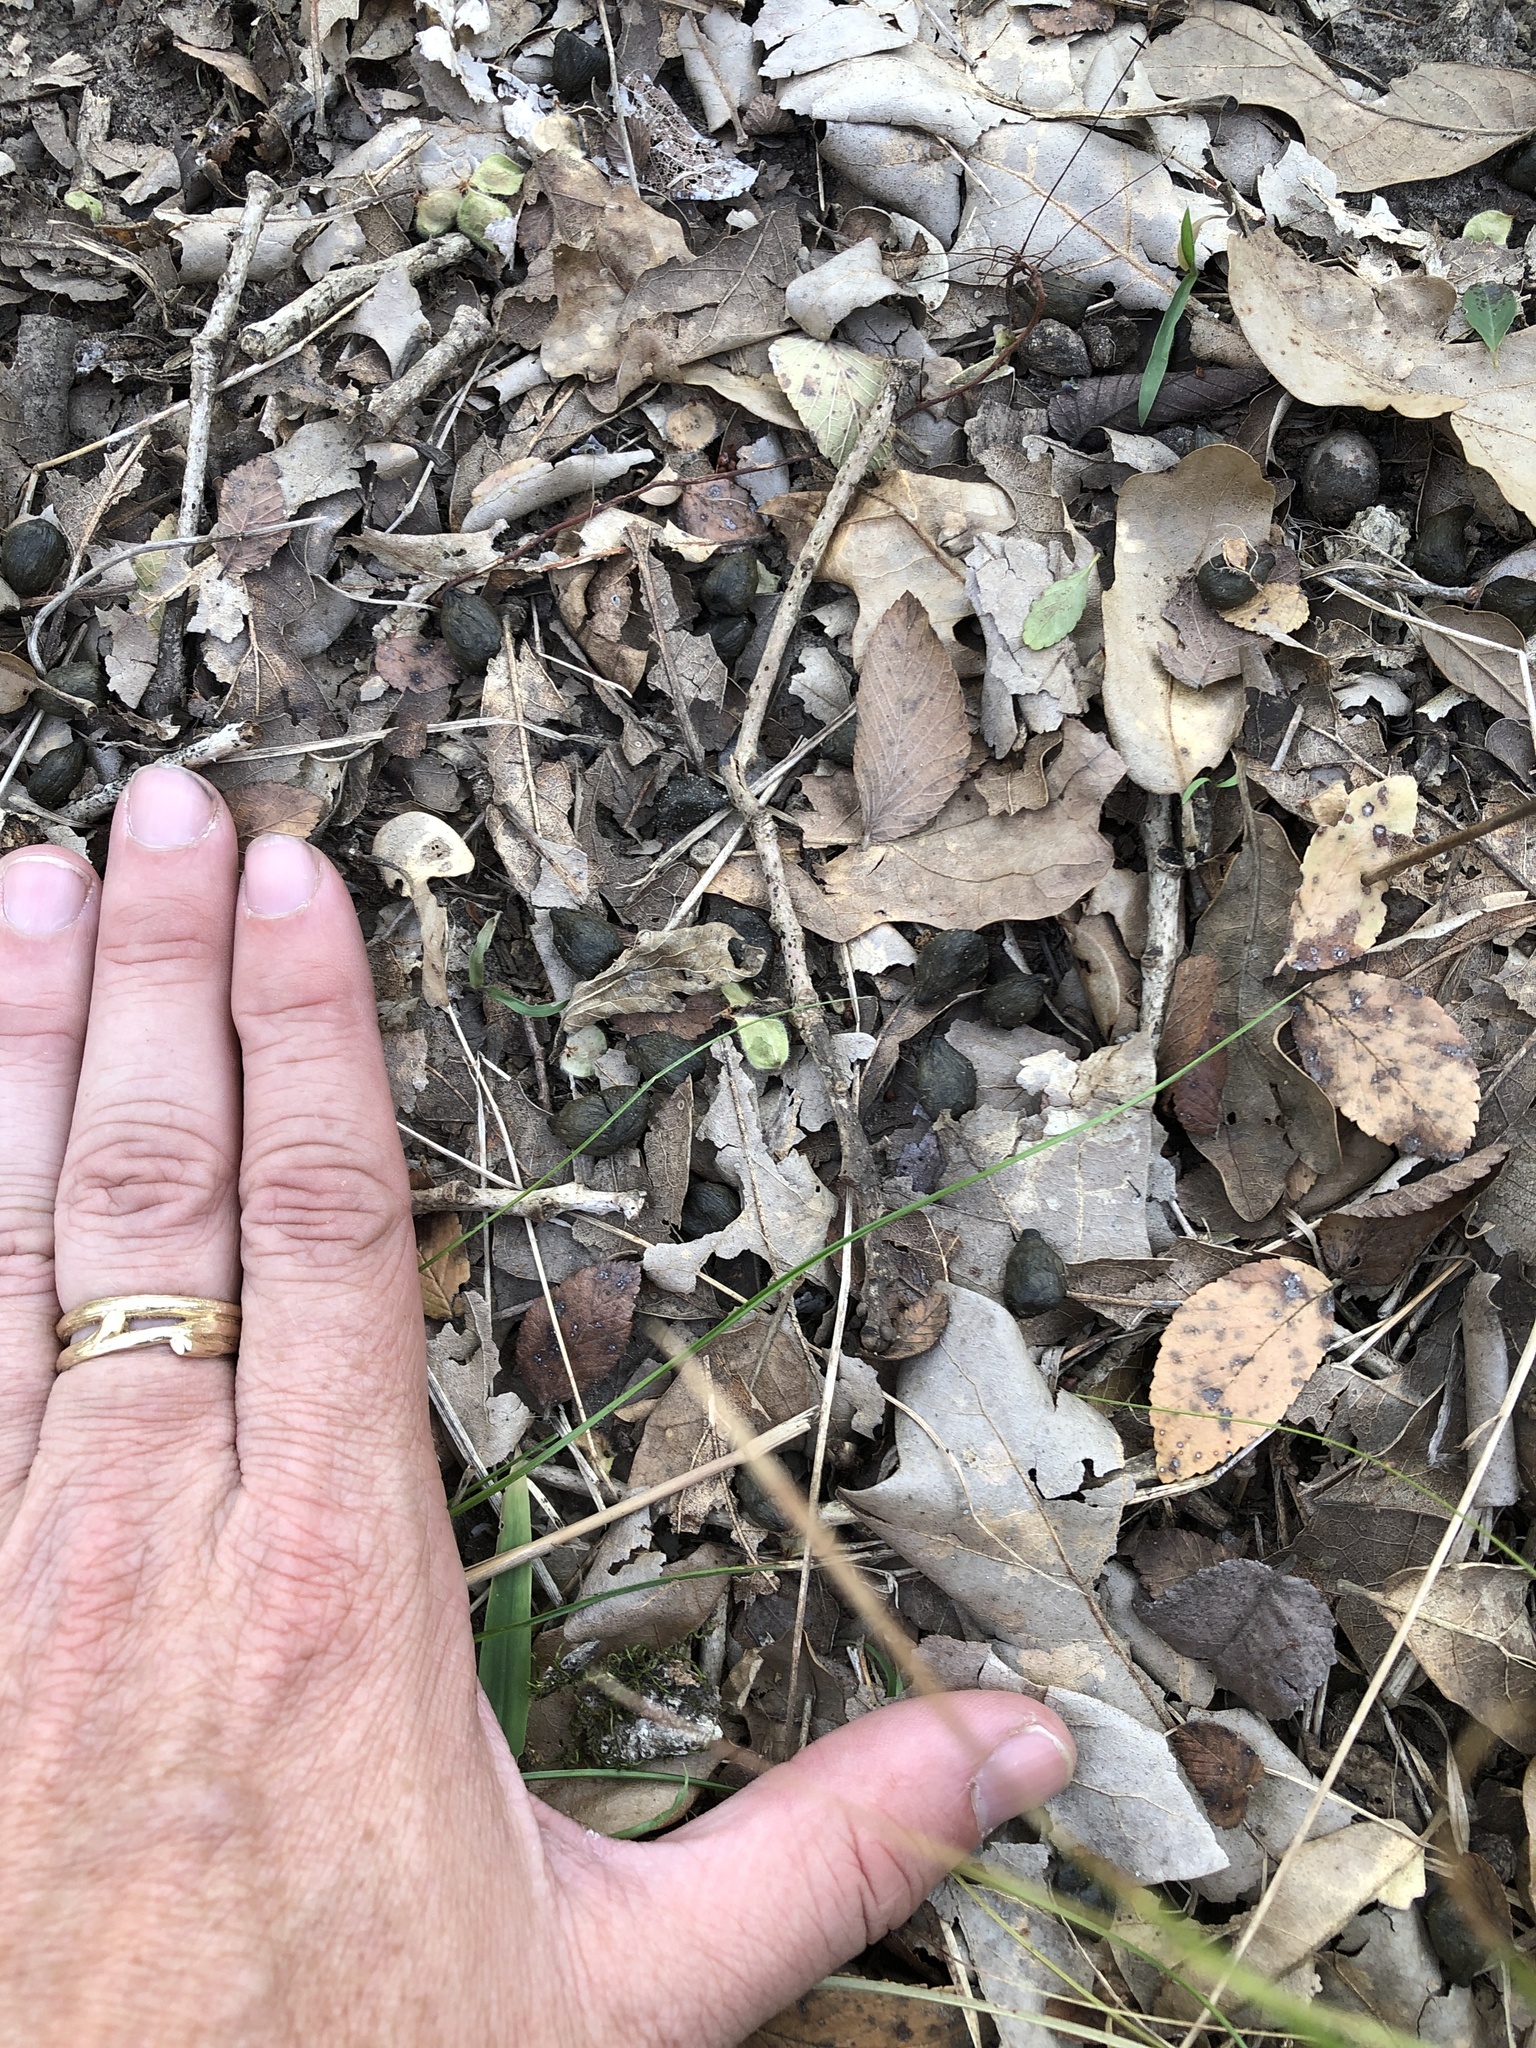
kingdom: Animalia
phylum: Chordata
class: Mammalia
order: Artiodactyla
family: Cervidae
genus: Odocoileus
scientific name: Odocoileus virginianus
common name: White-tailed deer
